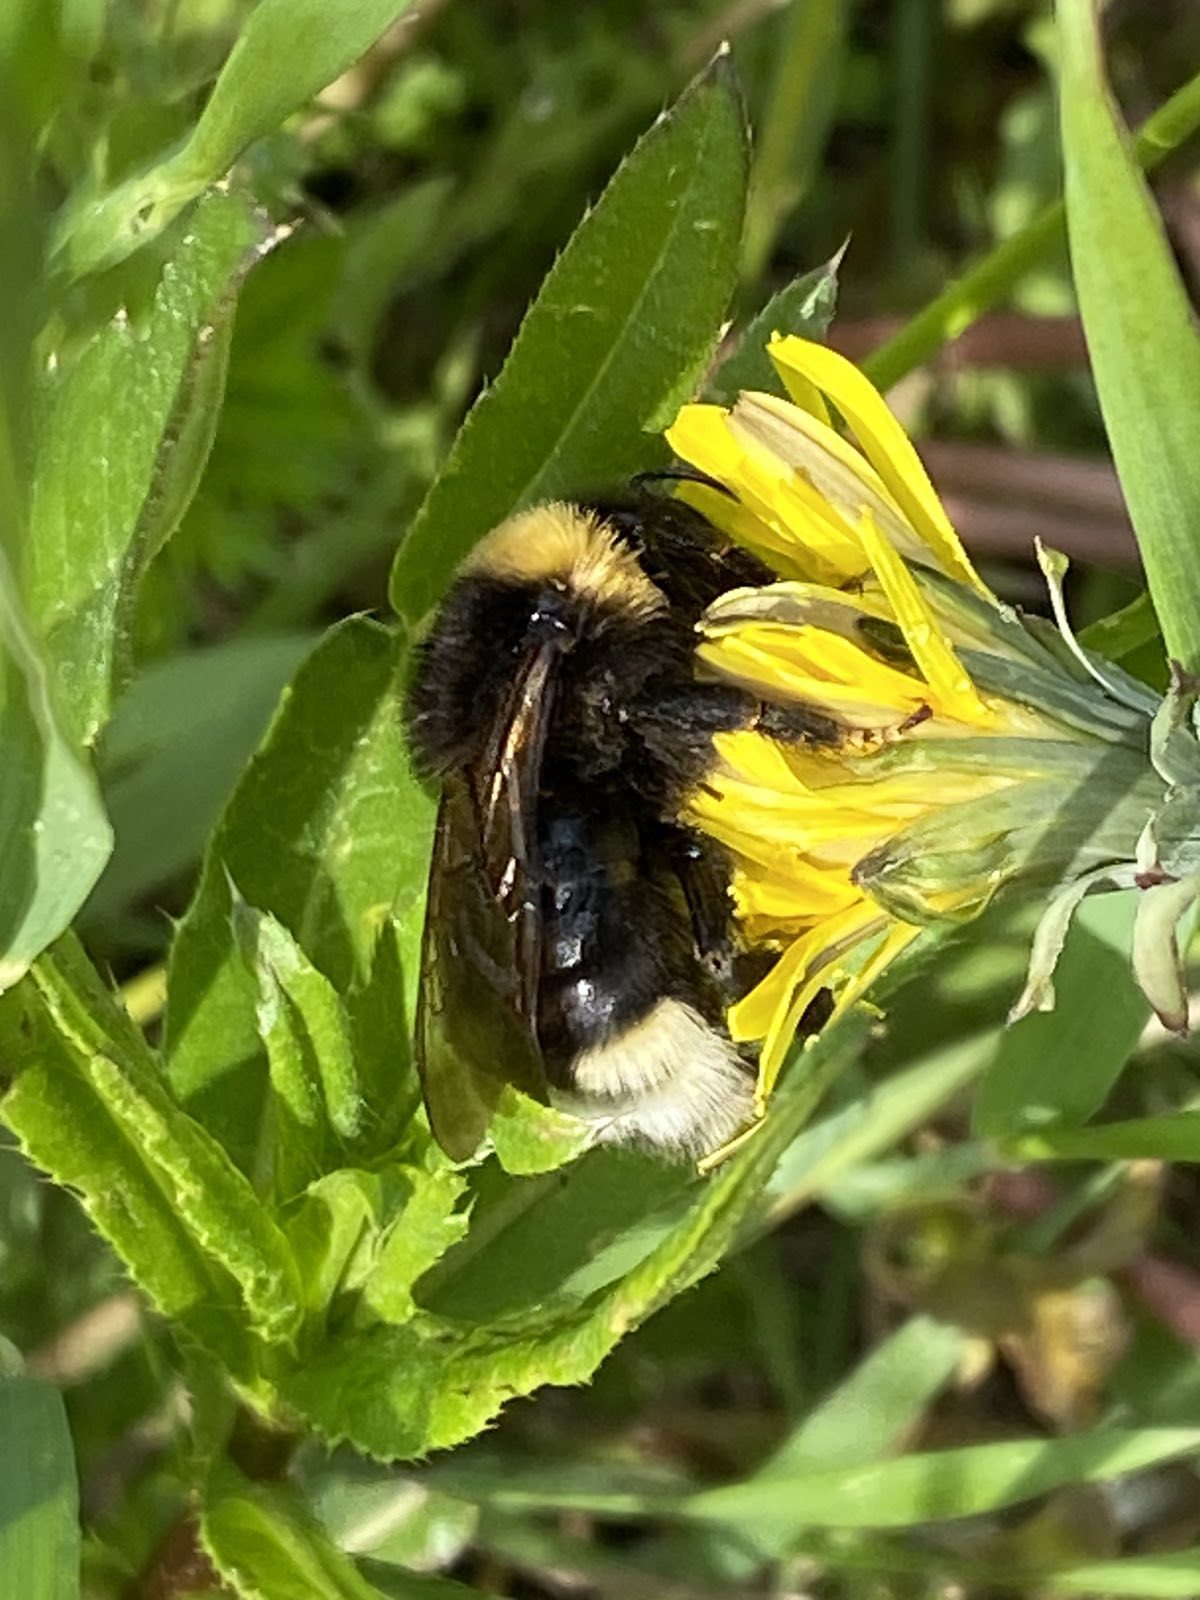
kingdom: Animalia
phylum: Arthropoda
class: Insecta
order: Hymenoptera
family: Apidae
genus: Bombus
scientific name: Bombus bohemicus
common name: Gypsy cuckoo bee
